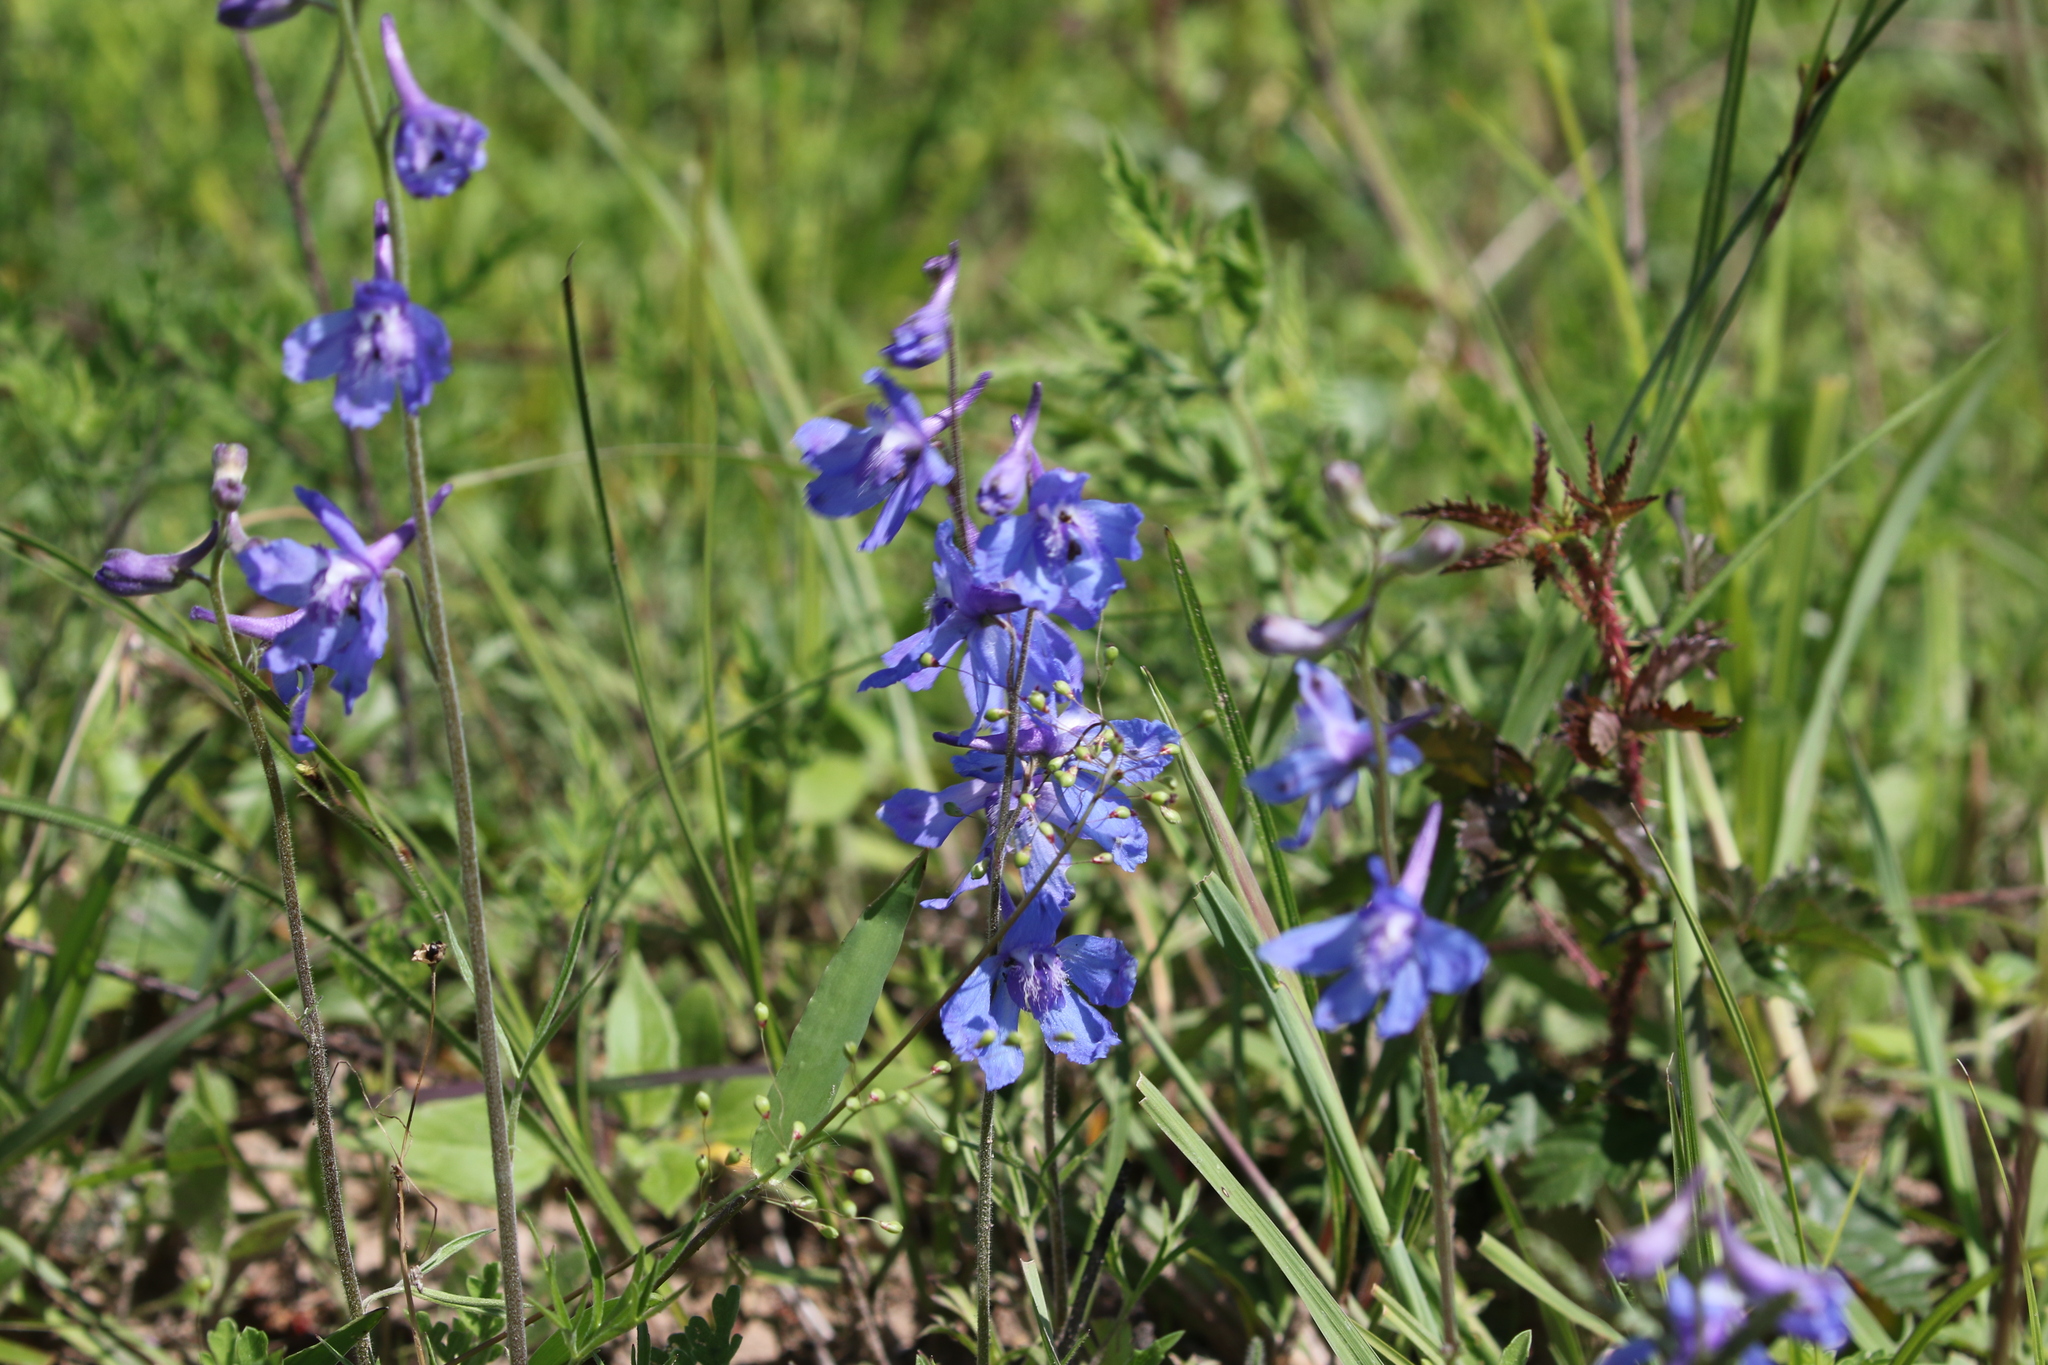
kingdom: Plantae
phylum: Tracheophyta
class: Magnoliopsida
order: Ranunculales
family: Ranunculaceae
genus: Delphinium
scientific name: Delphinium carolinianum
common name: Carolina larkspur
